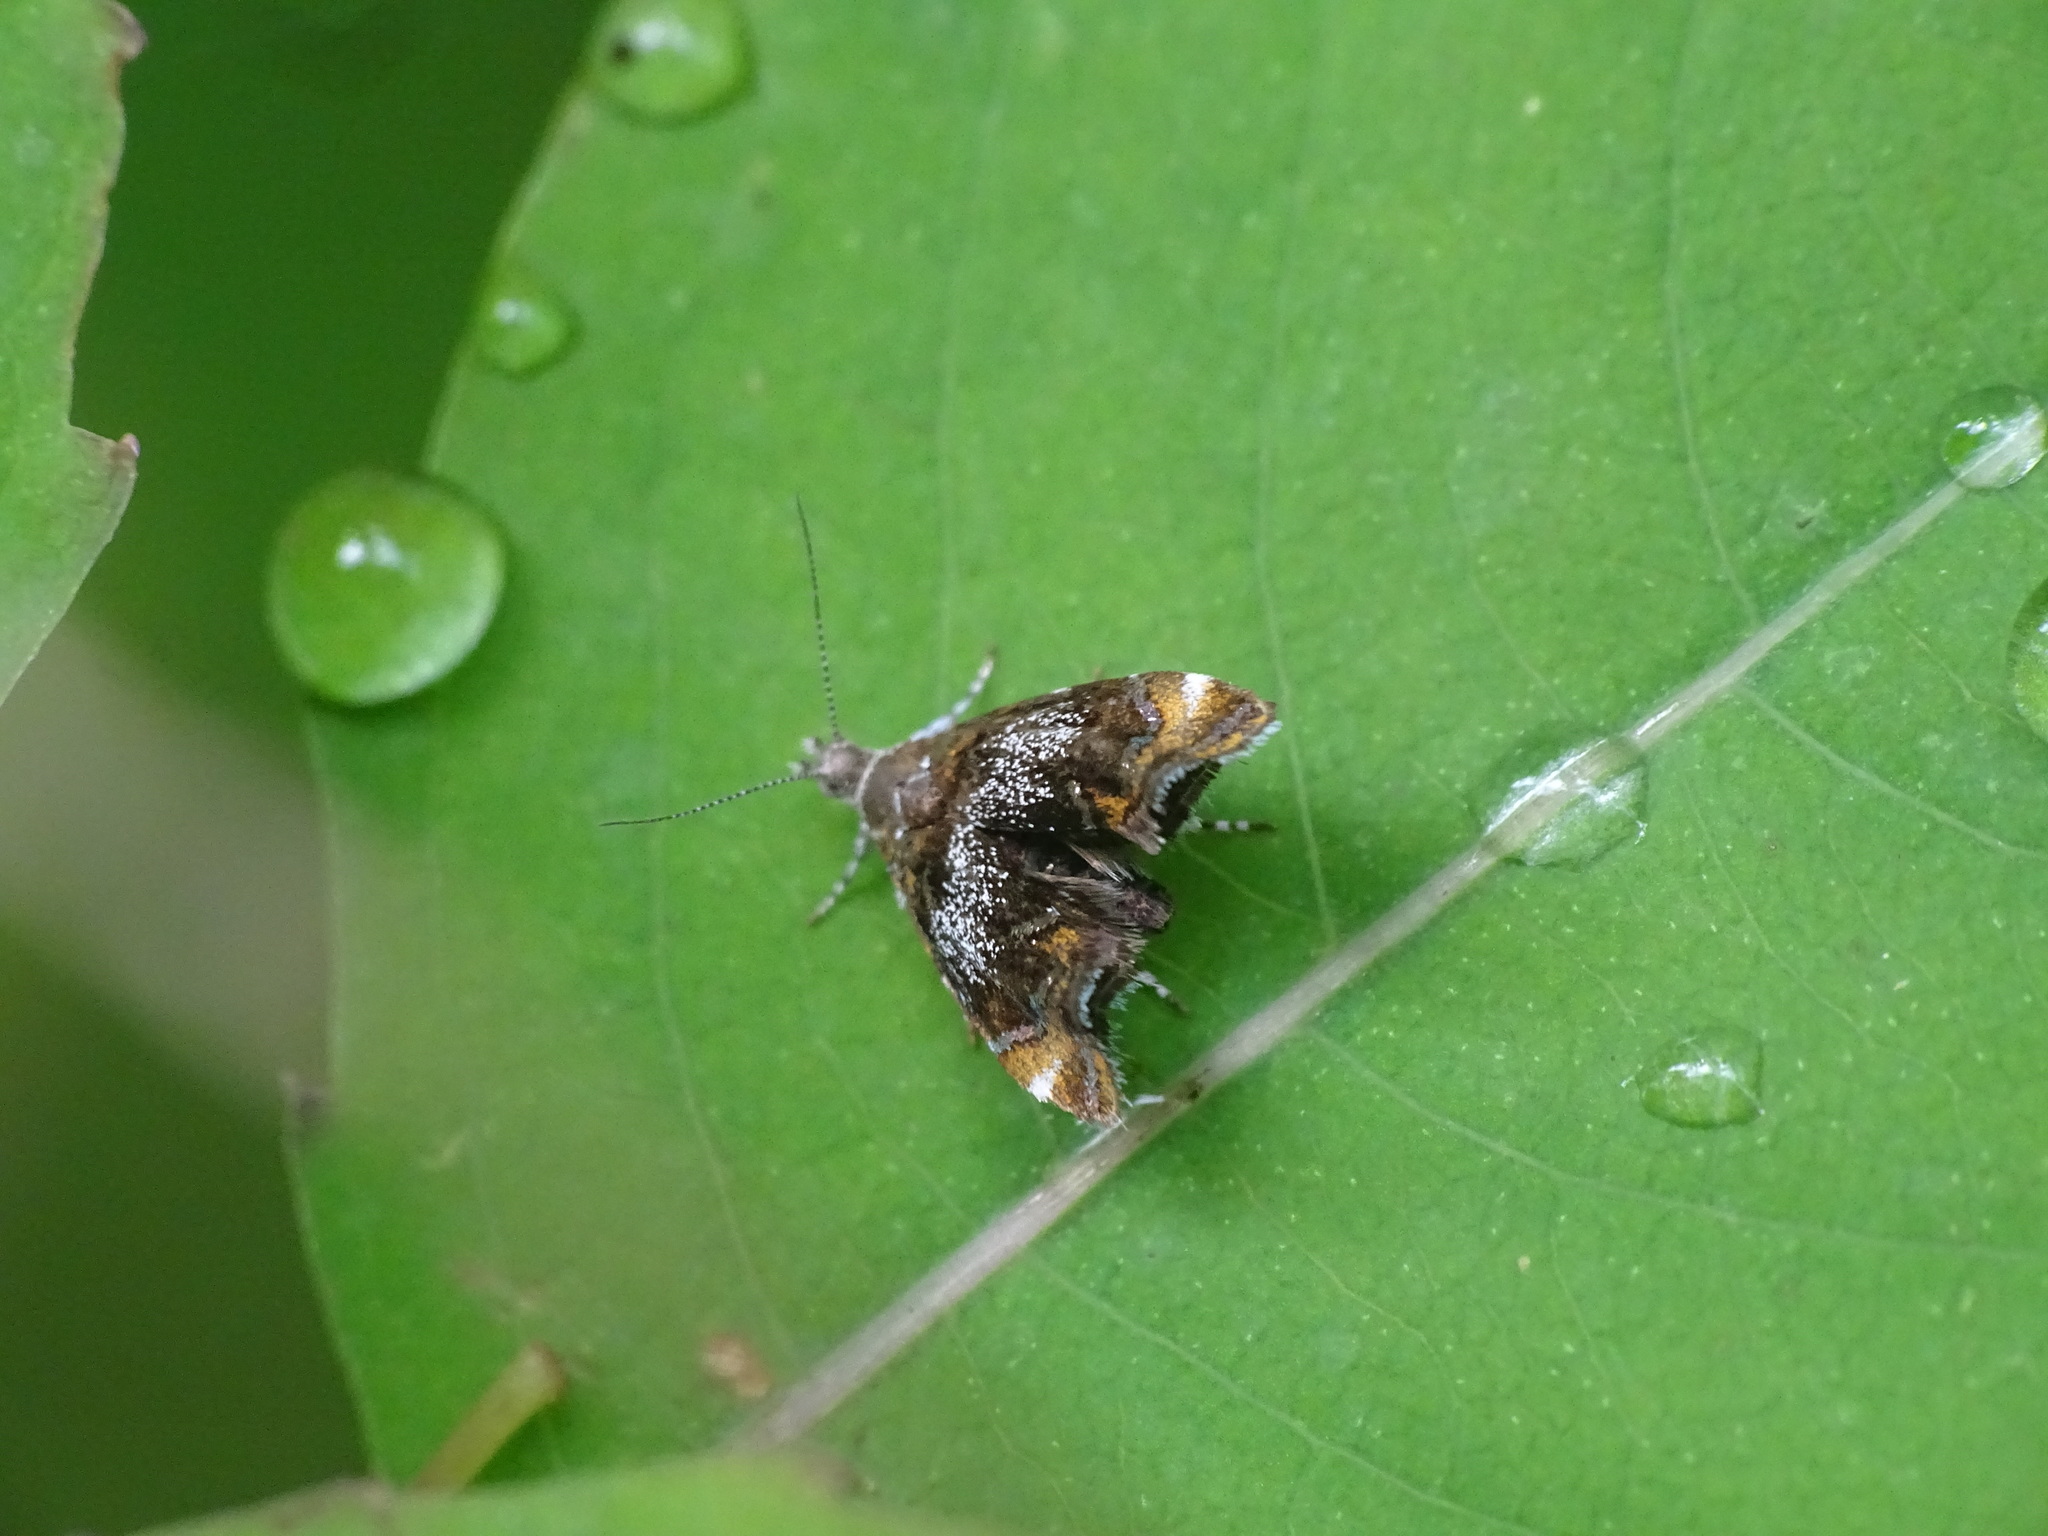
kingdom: Animalia
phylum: Arthropoda
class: Insecta
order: Lepidoptera
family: Choreutidae
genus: Prochoreutis
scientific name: Prochoreutis inflatella
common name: Skullcap skeletonizer moth
